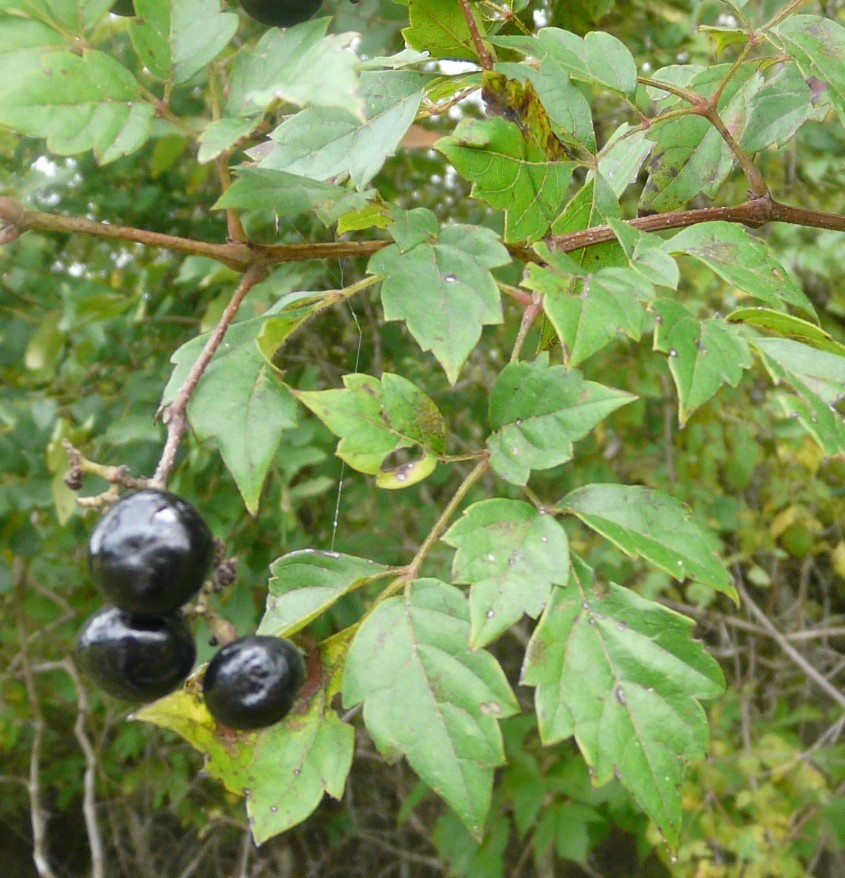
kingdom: Plantae
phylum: Tracheophyta
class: Magnoliopsida
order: Vitales
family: Vitaceae
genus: Nekemias
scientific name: Nekemias arborea
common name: Peppervine
